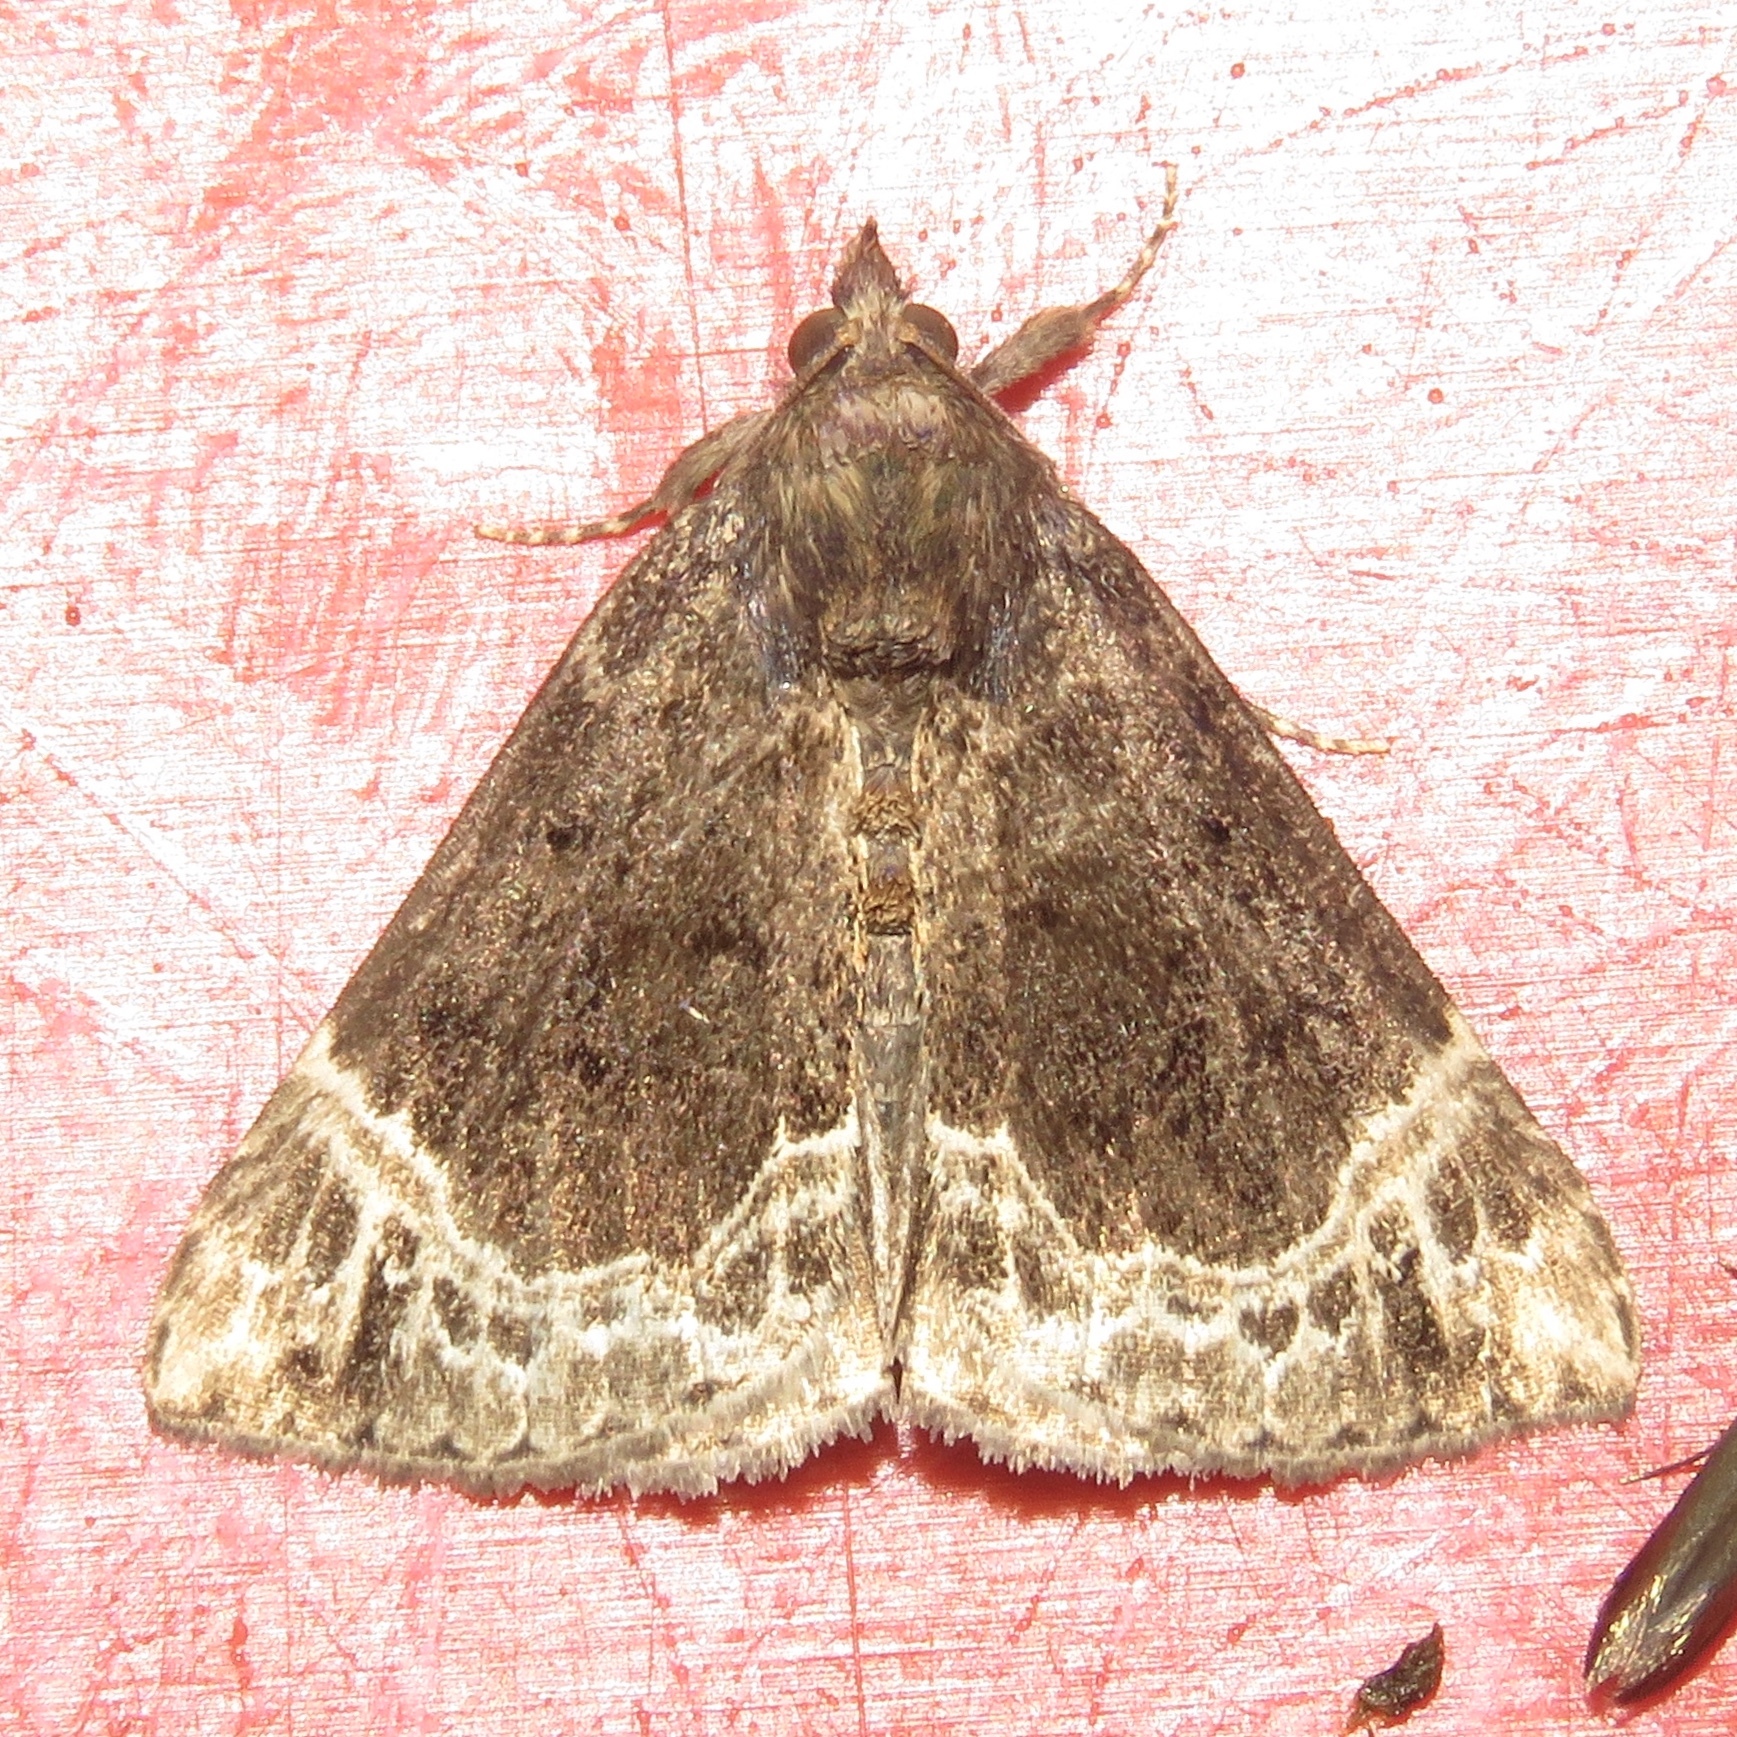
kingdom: Animalia
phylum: Arthropoda
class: Insecta
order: Lepidoptera
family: Erebidae
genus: Hypena
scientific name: Hypena abalienalis
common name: White-lined snout
